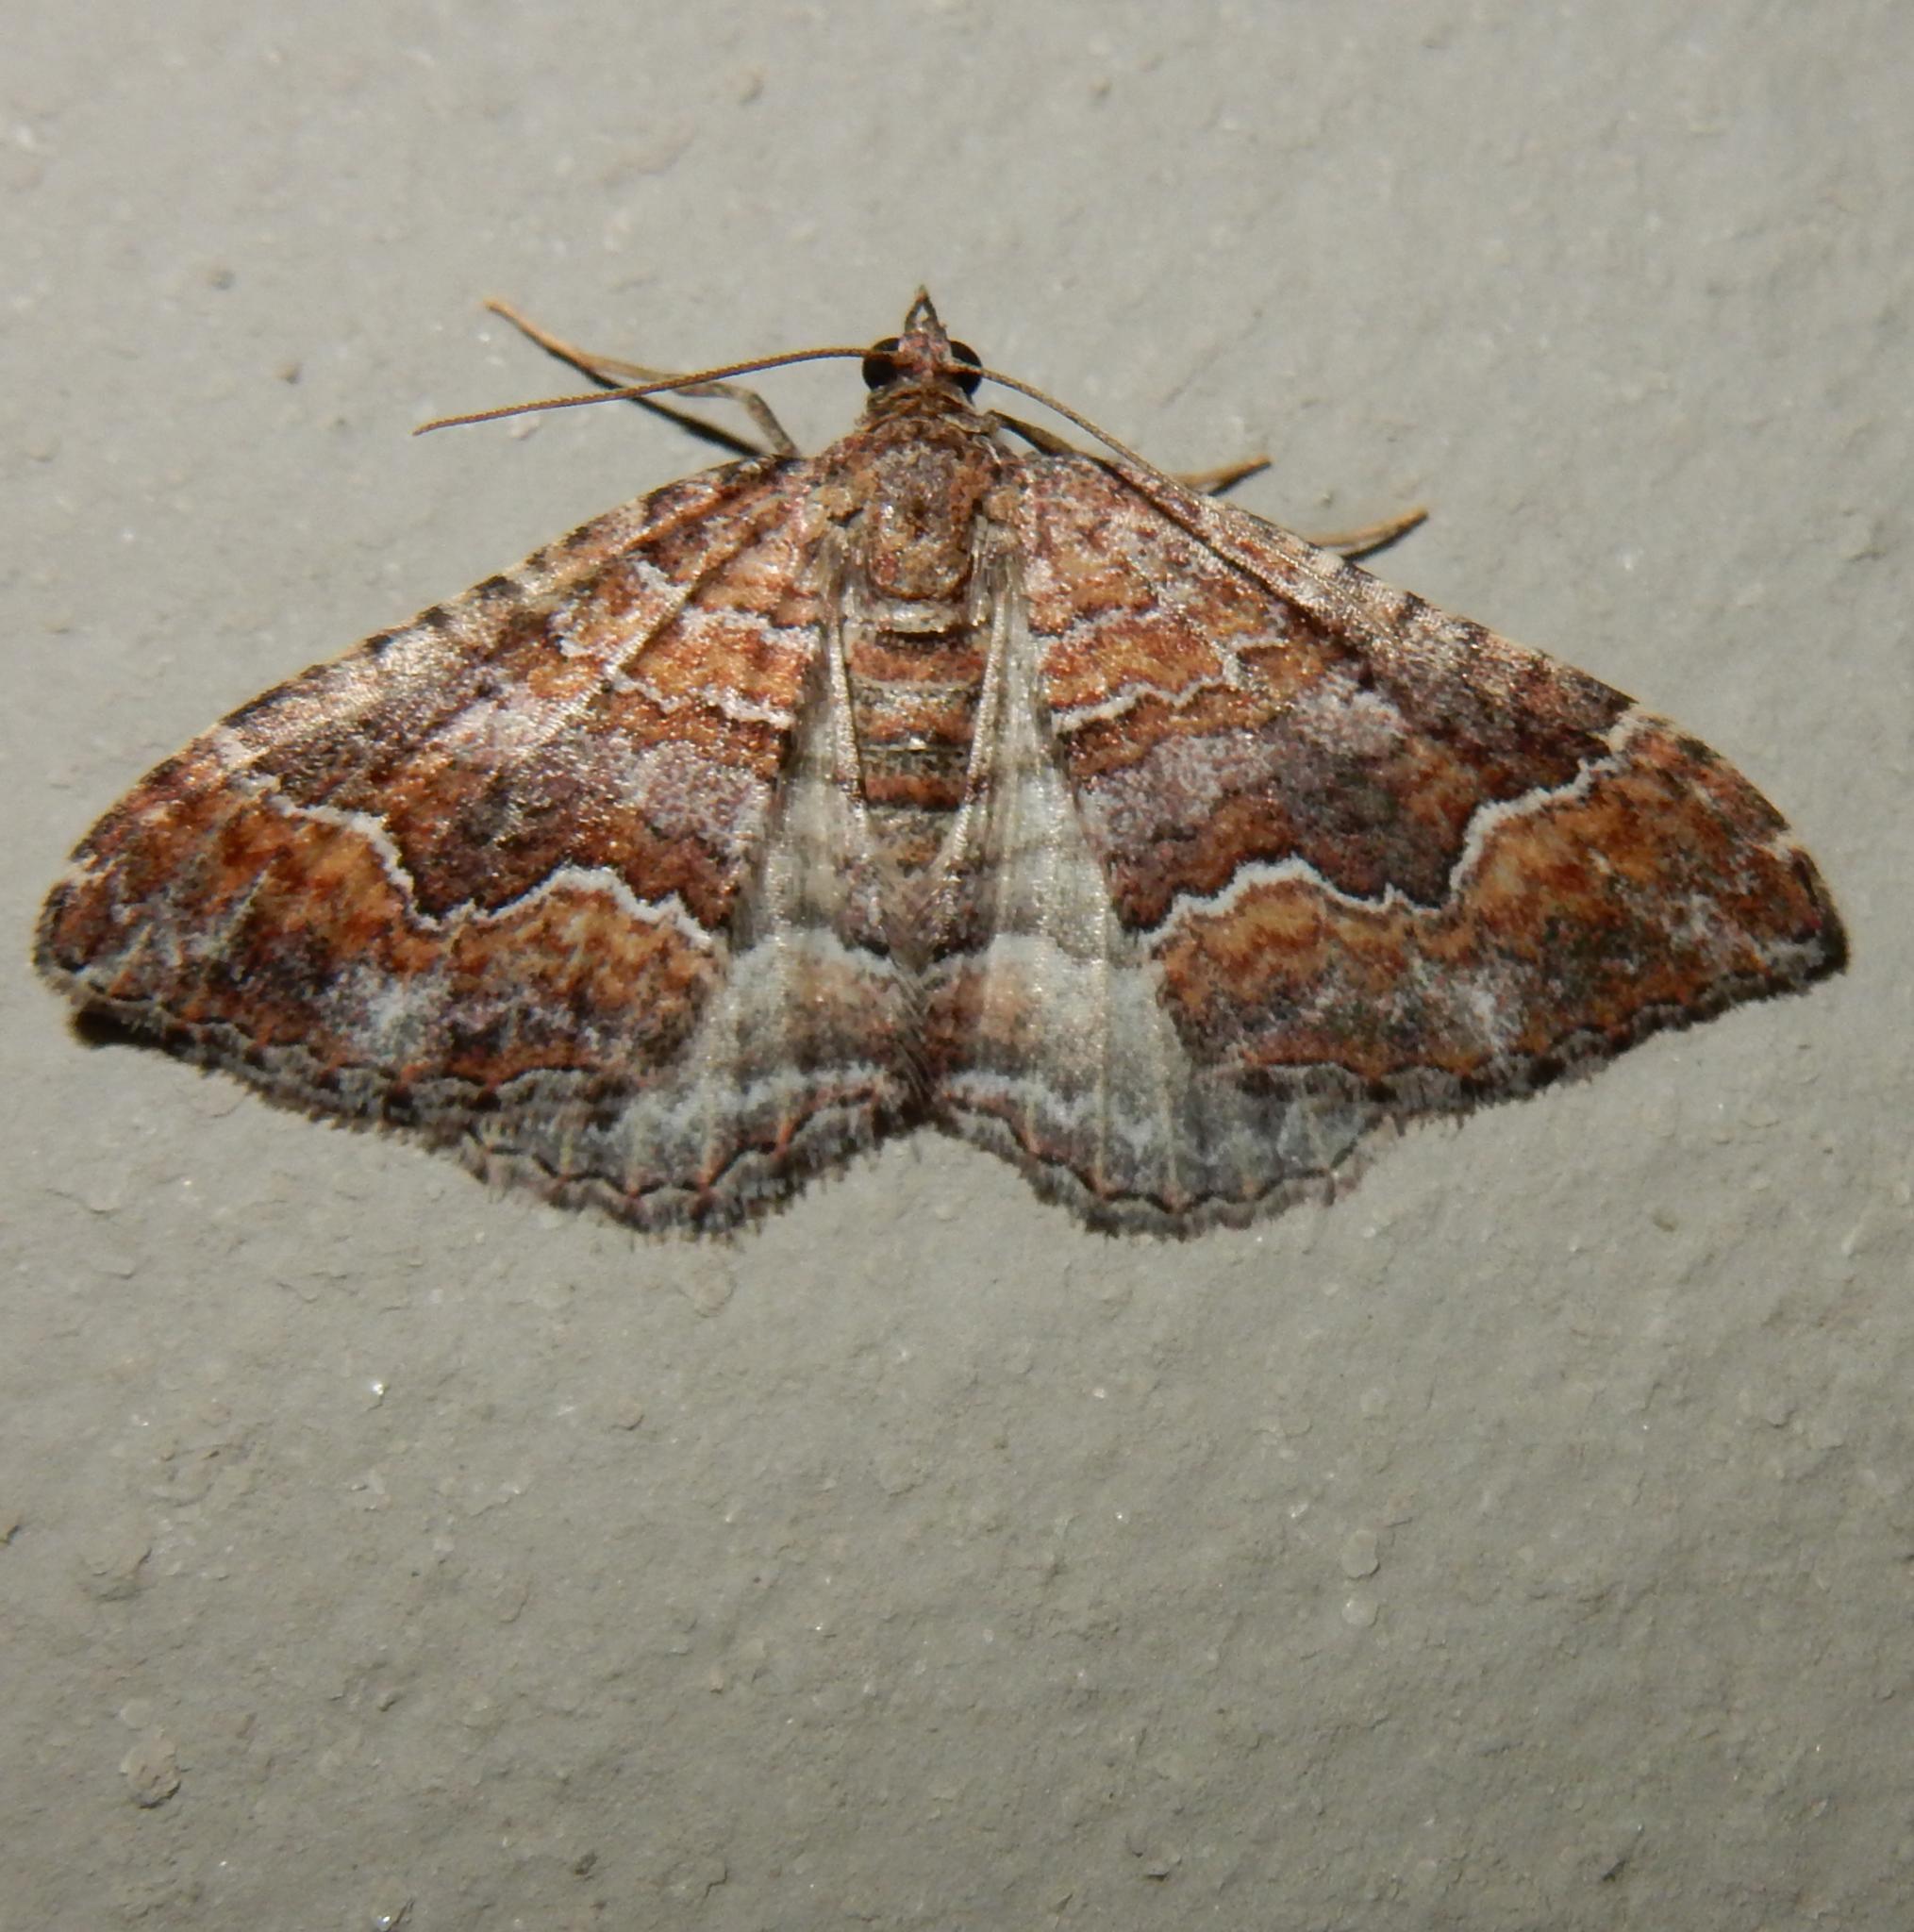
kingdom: Animalia
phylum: Arthropoda
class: Insecta
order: Lepidoptera
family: Geometridae
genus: Mimoclystia
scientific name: Mimoclystia explanata
